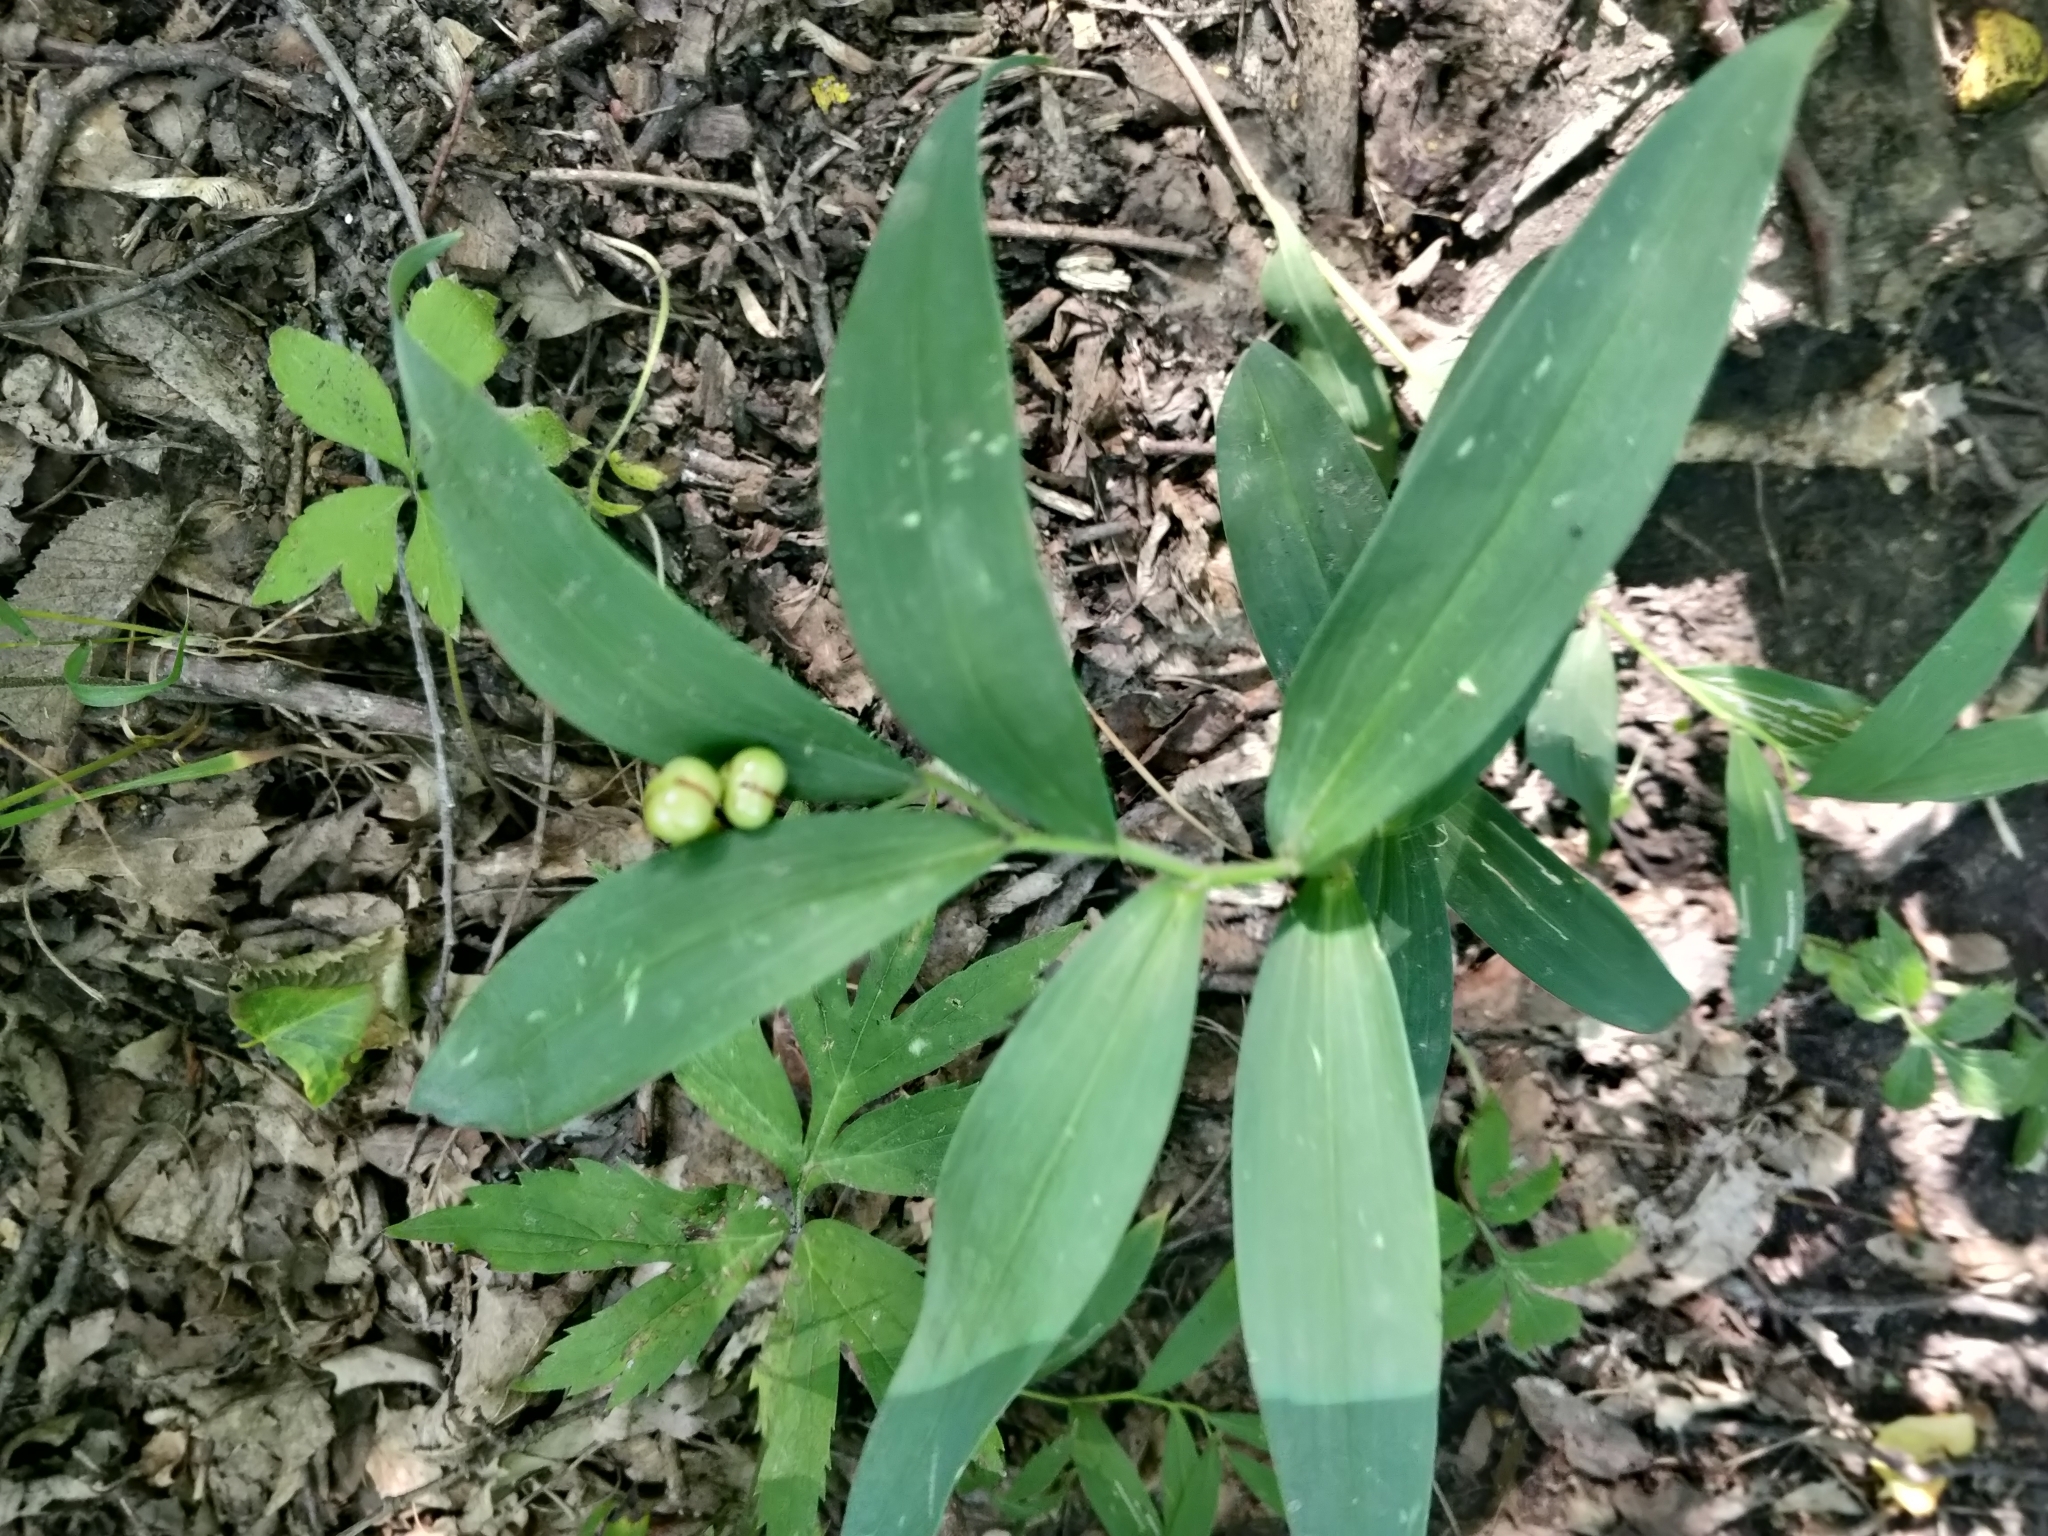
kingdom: Plantae
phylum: Tracheophyta
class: Liliopsida
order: Asparagales
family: Asparagaceae
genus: Maianthemum
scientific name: Maianthemum stellatum
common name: Little false solomon's seal
